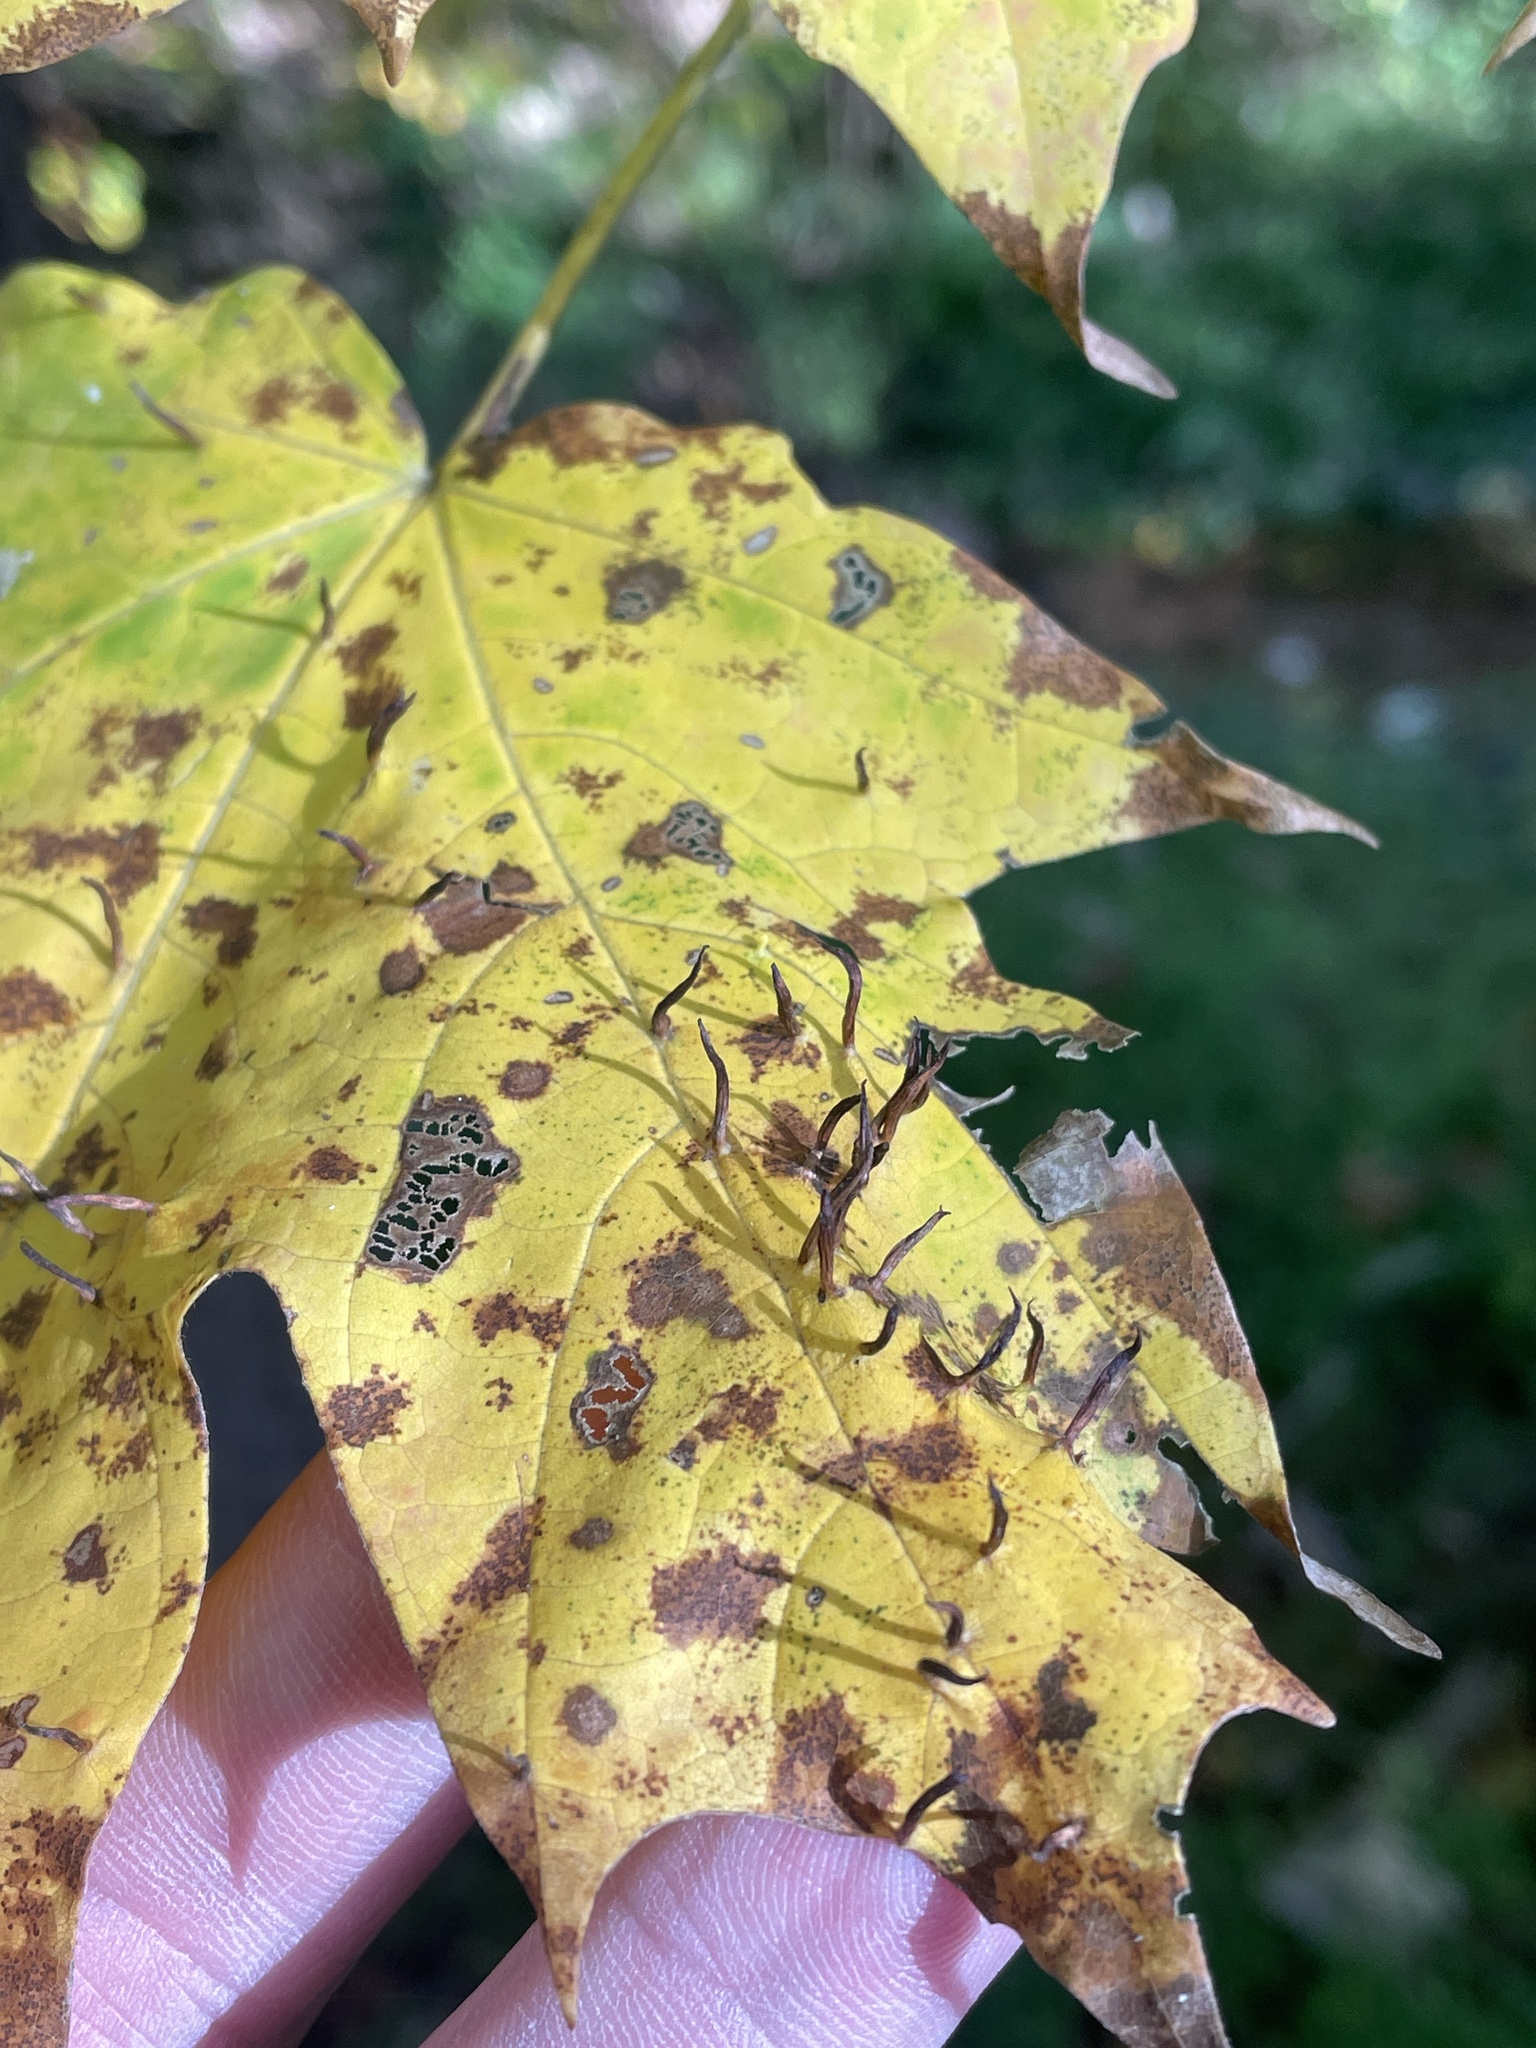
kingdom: Animalia
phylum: Arthropoda
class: Arachnida
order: Trombidiformes
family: Eriophyidae
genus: Vasates
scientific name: Vasates aceriscrumena
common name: Maple spindle gall mite
